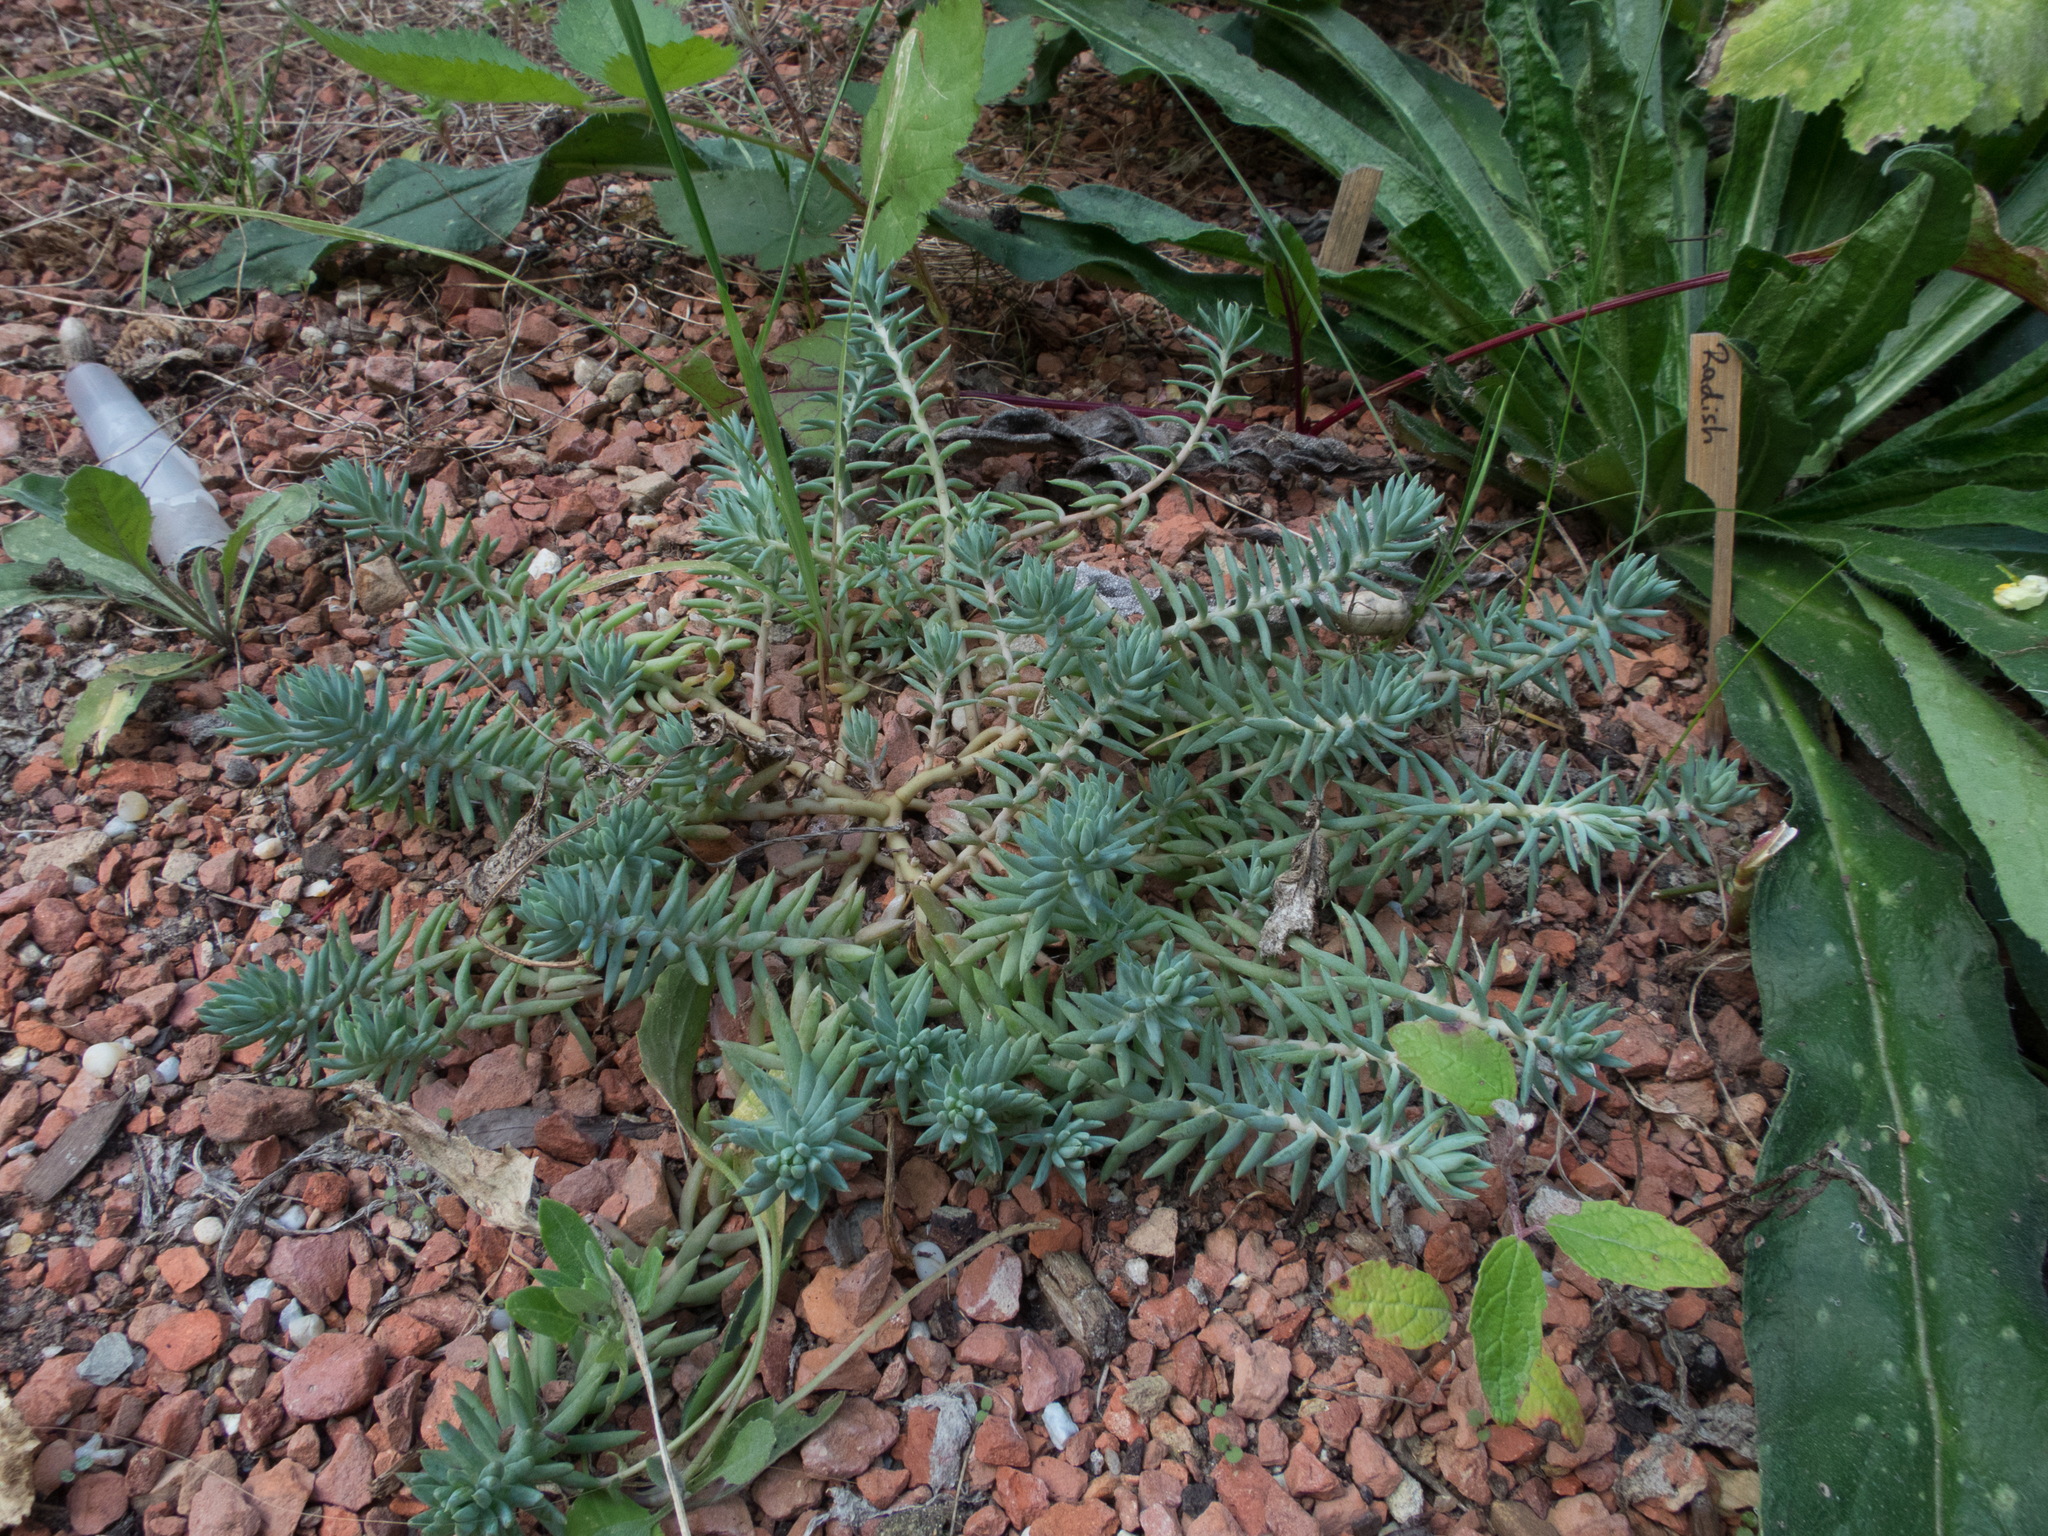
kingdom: Plantae
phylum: Tracheophyta
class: Magnoliopsida
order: Saxifragales
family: Crassulaceae
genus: Petrosedum
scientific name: Petrosedum orientale
